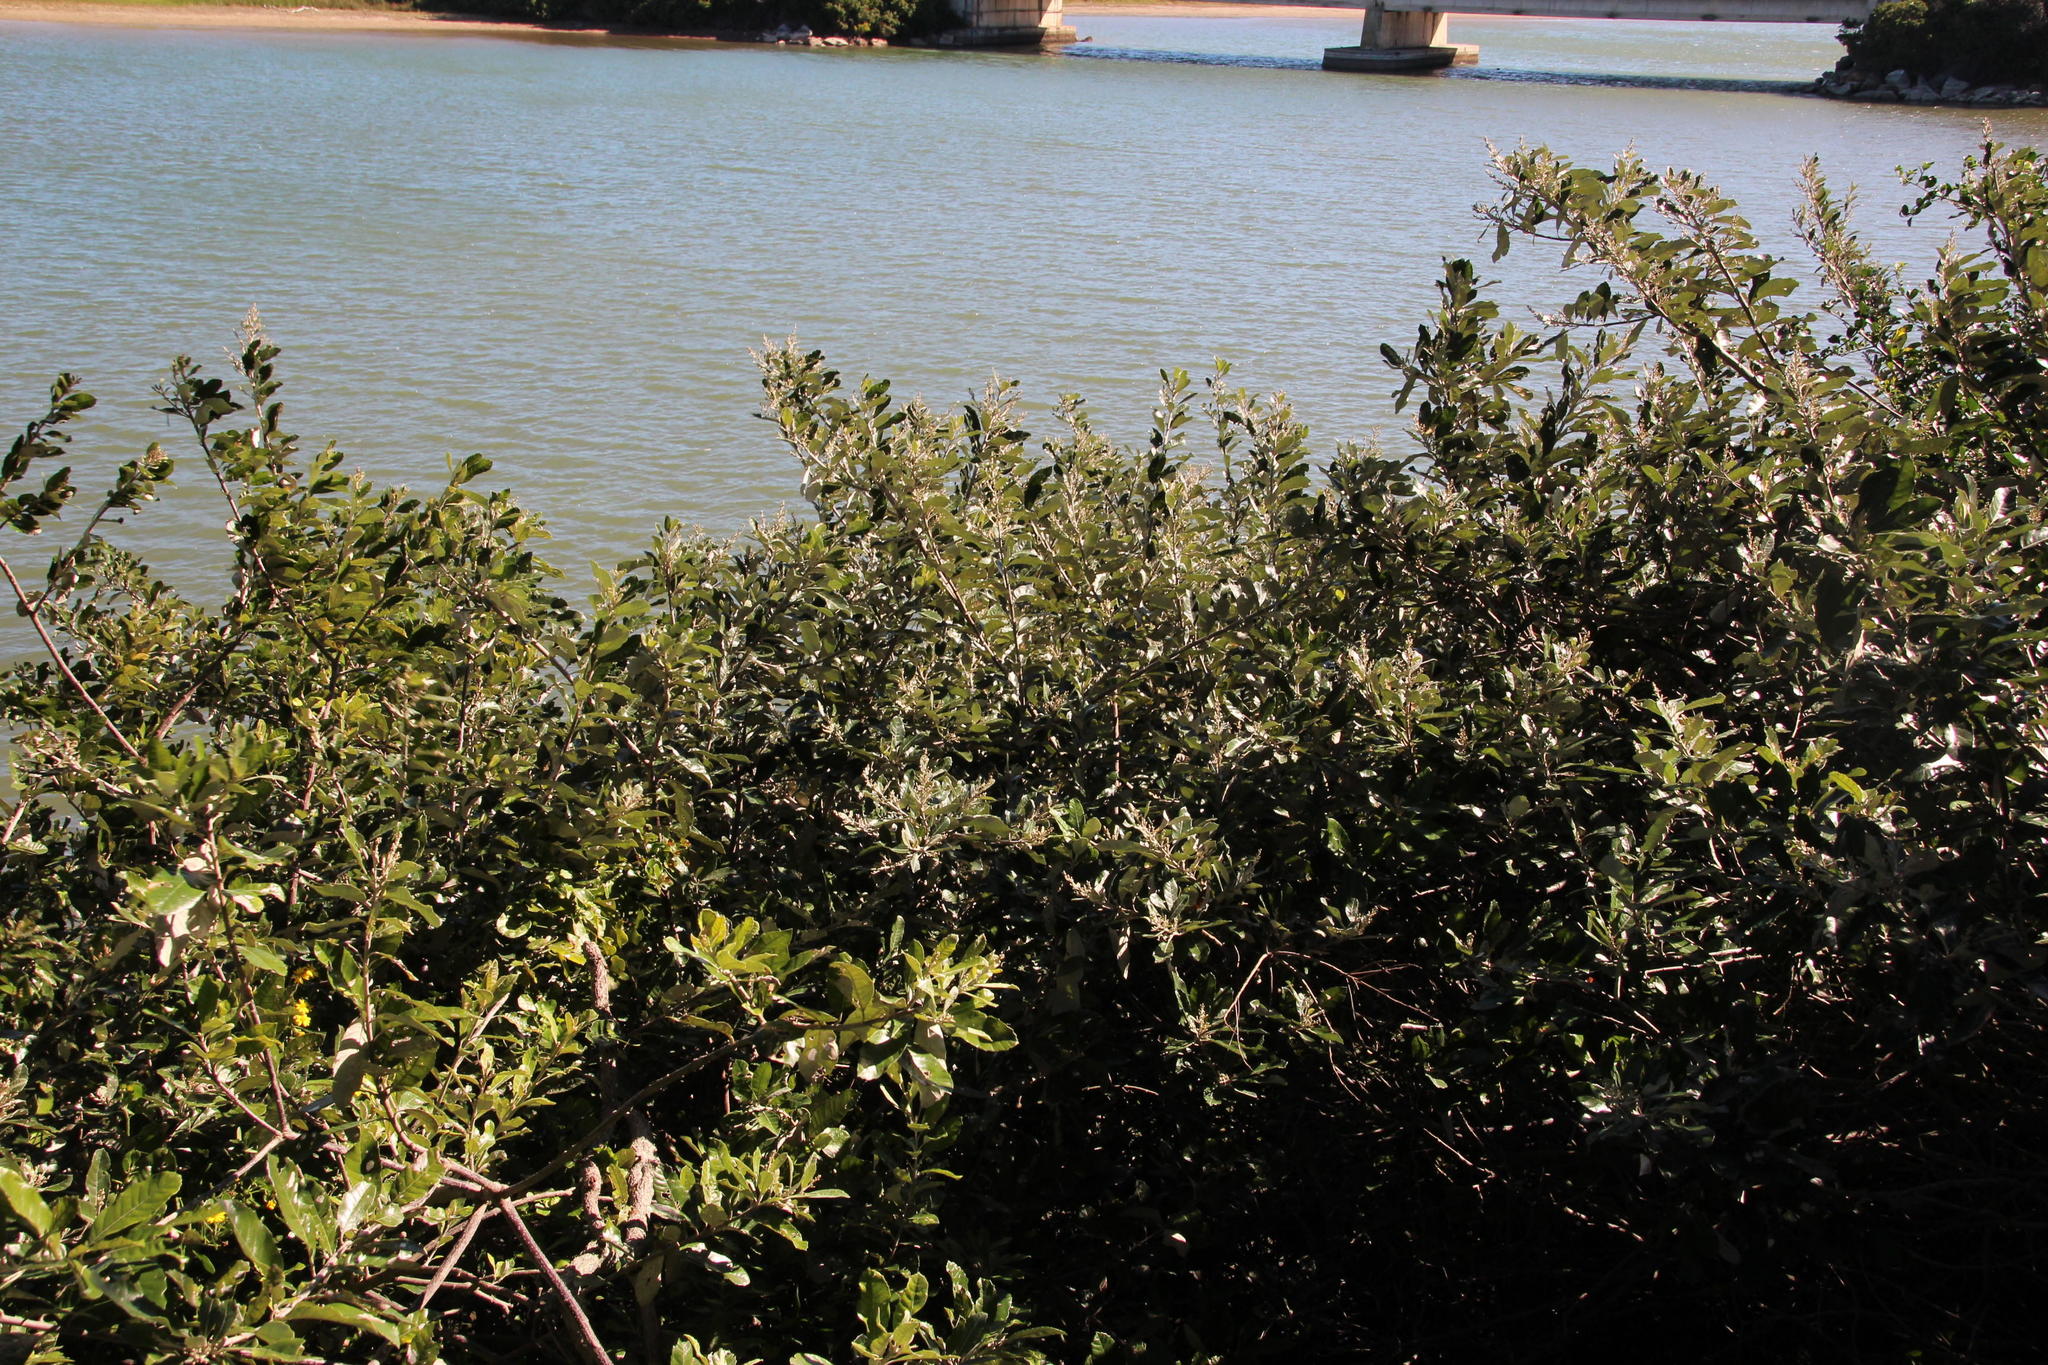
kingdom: Plantae
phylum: Tracheophyta
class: Magnoliopsida
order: Asterales
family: Asteraceae
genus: Brachylaena
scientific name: Brachylaena discolor
